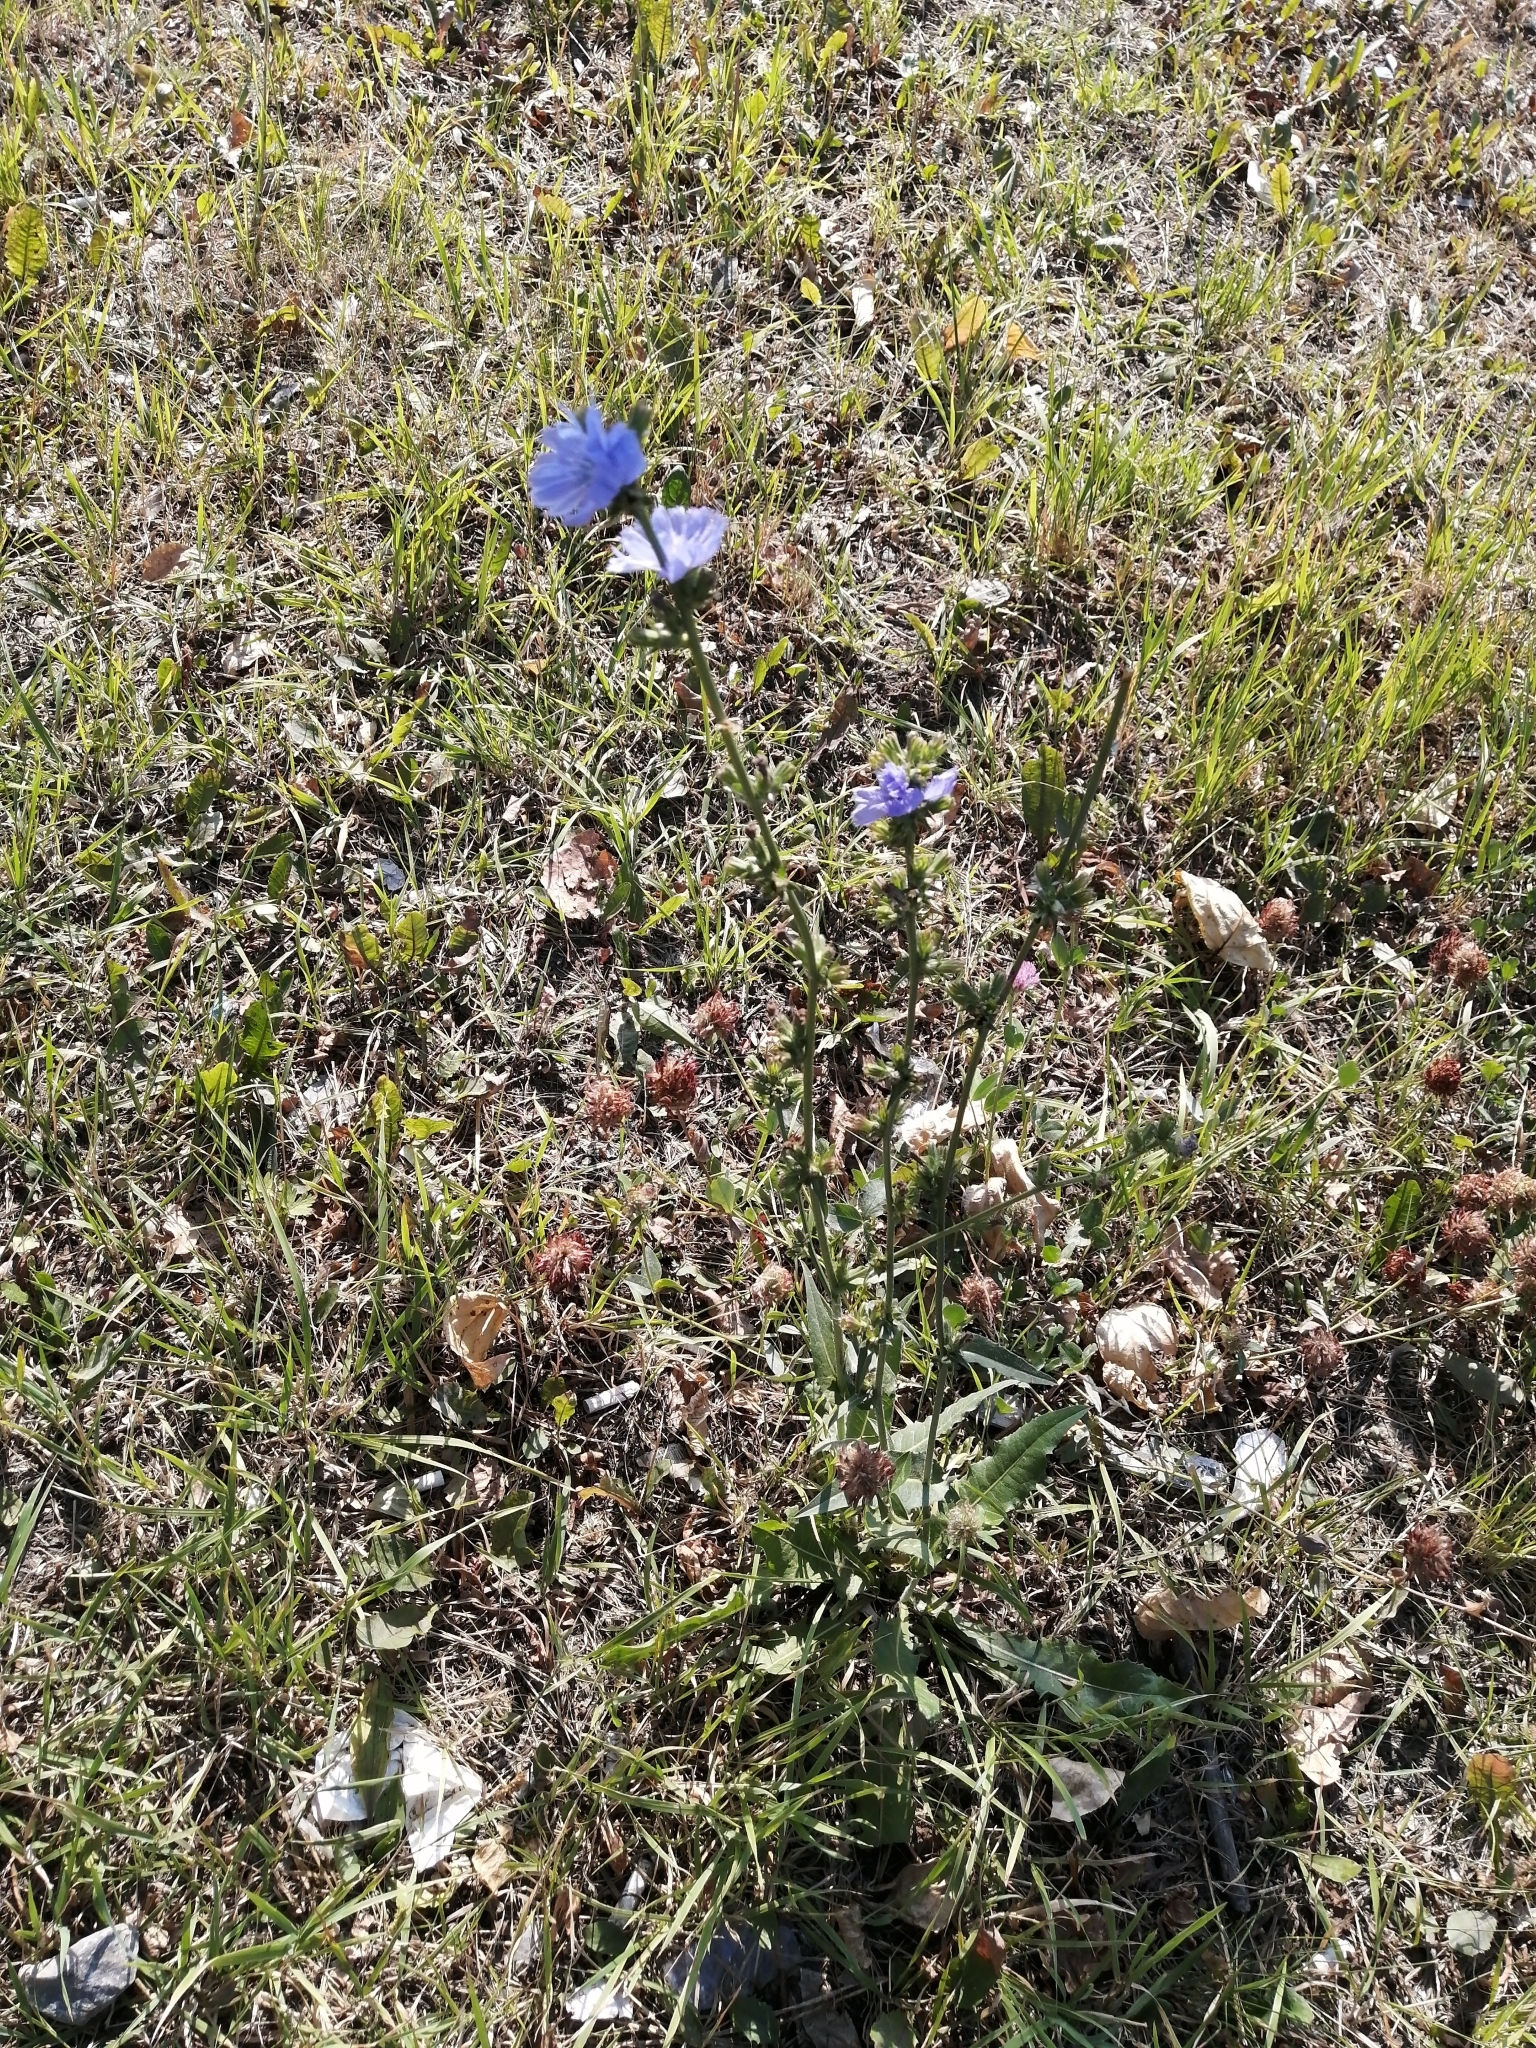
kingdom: Plantae
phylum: Tracheophyta
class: Magnoliopsida
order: Asterales
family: Asteraceae
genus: Cichorium
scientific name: Cichorium intybus
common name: Chicory
